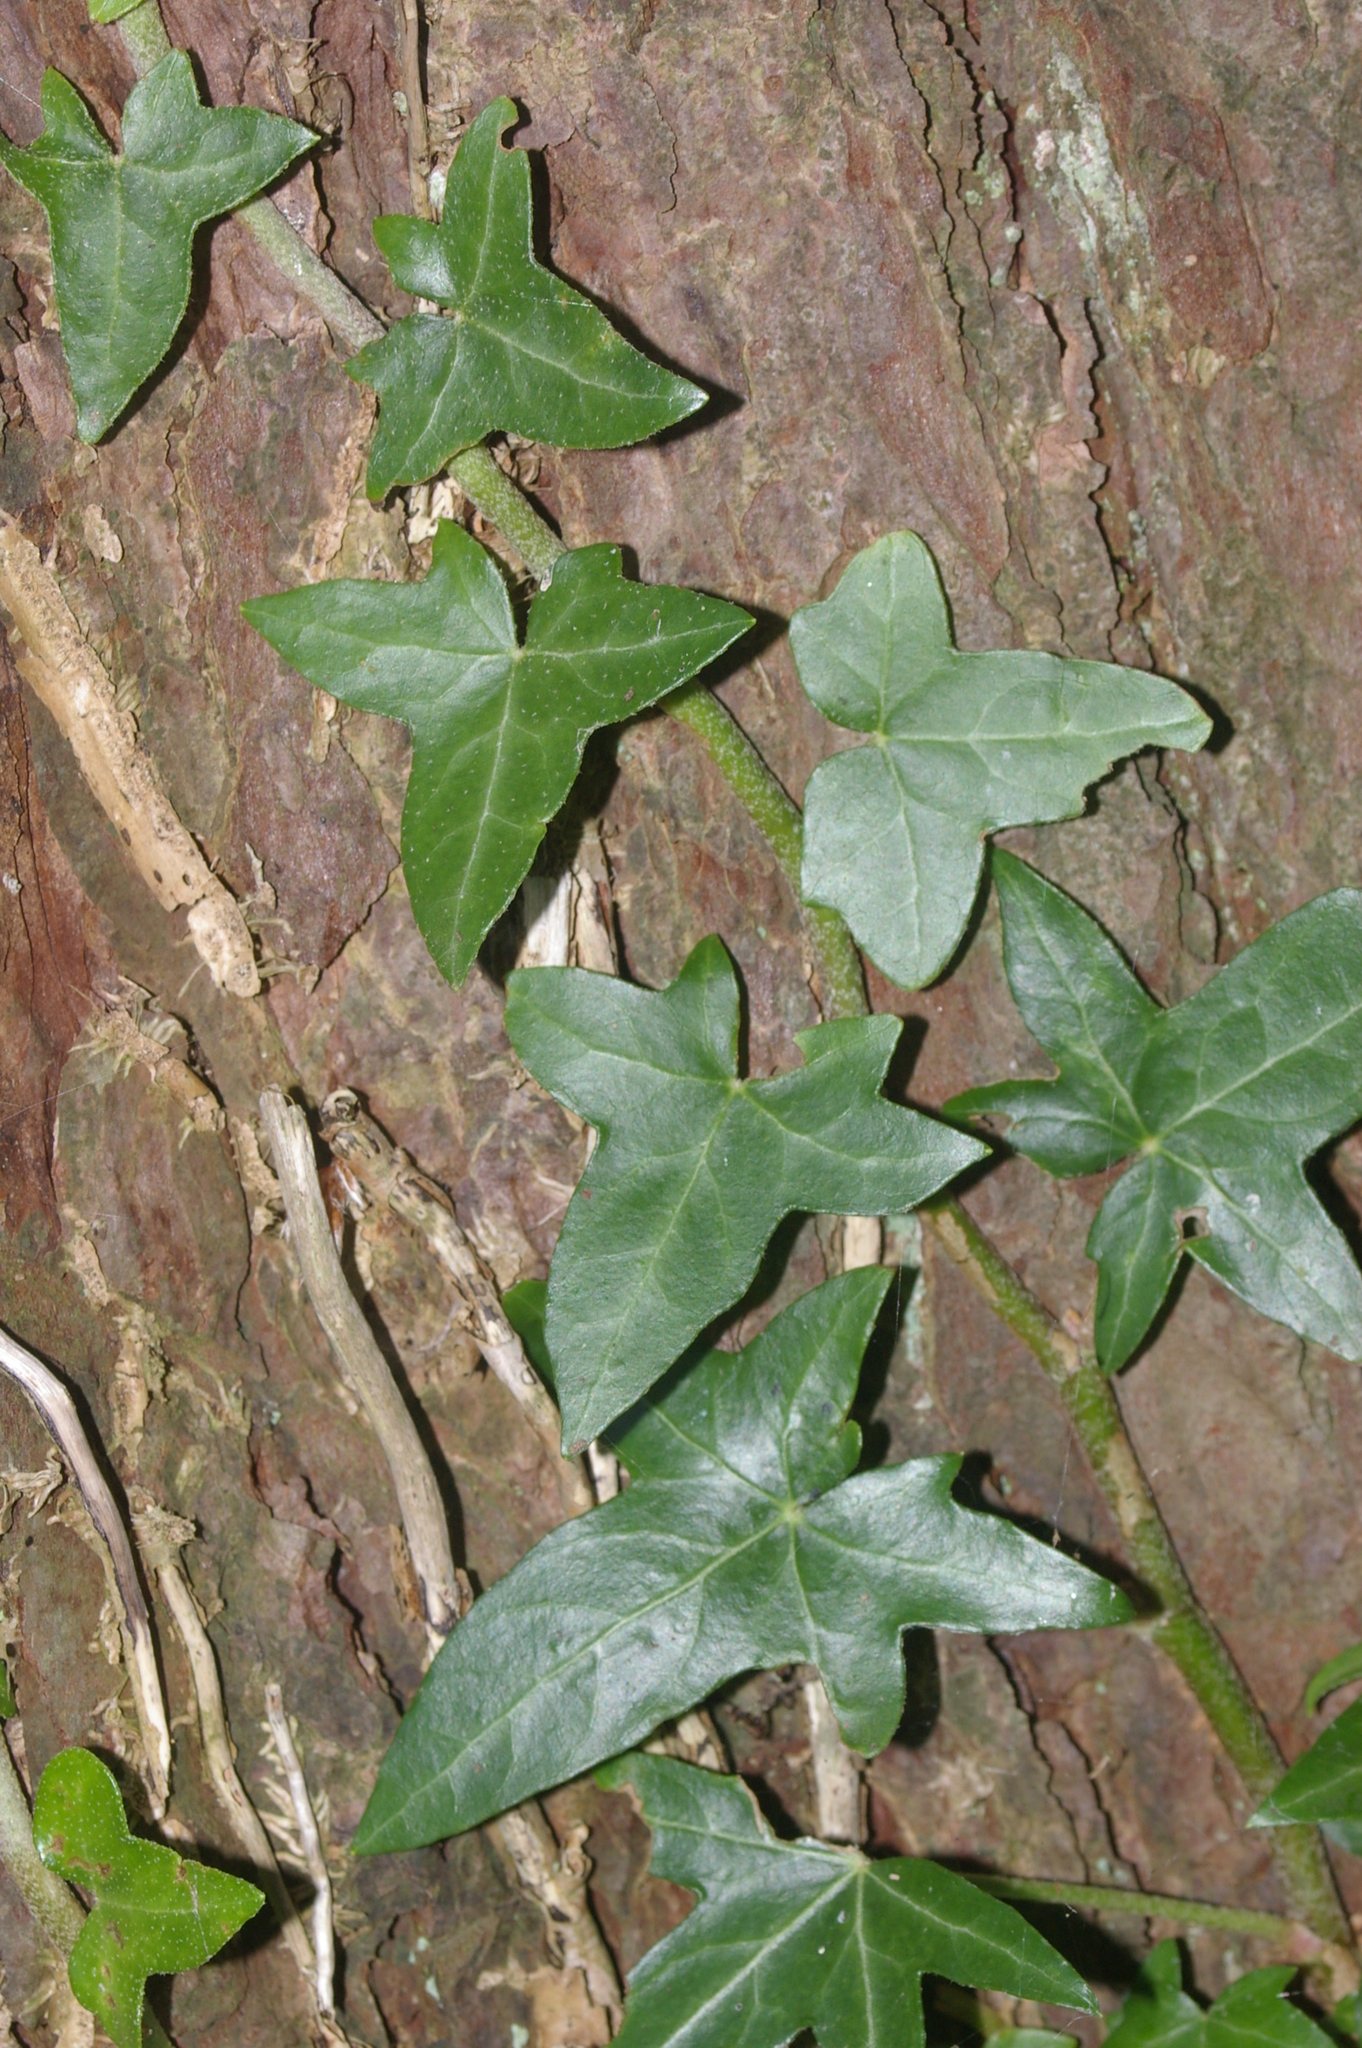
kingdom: Plantae
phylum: Tracheophyta
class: Magnoliopsida
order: Apiales
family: Araliaceae
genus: Hedera
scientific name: Hedera helix
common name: Ivy
